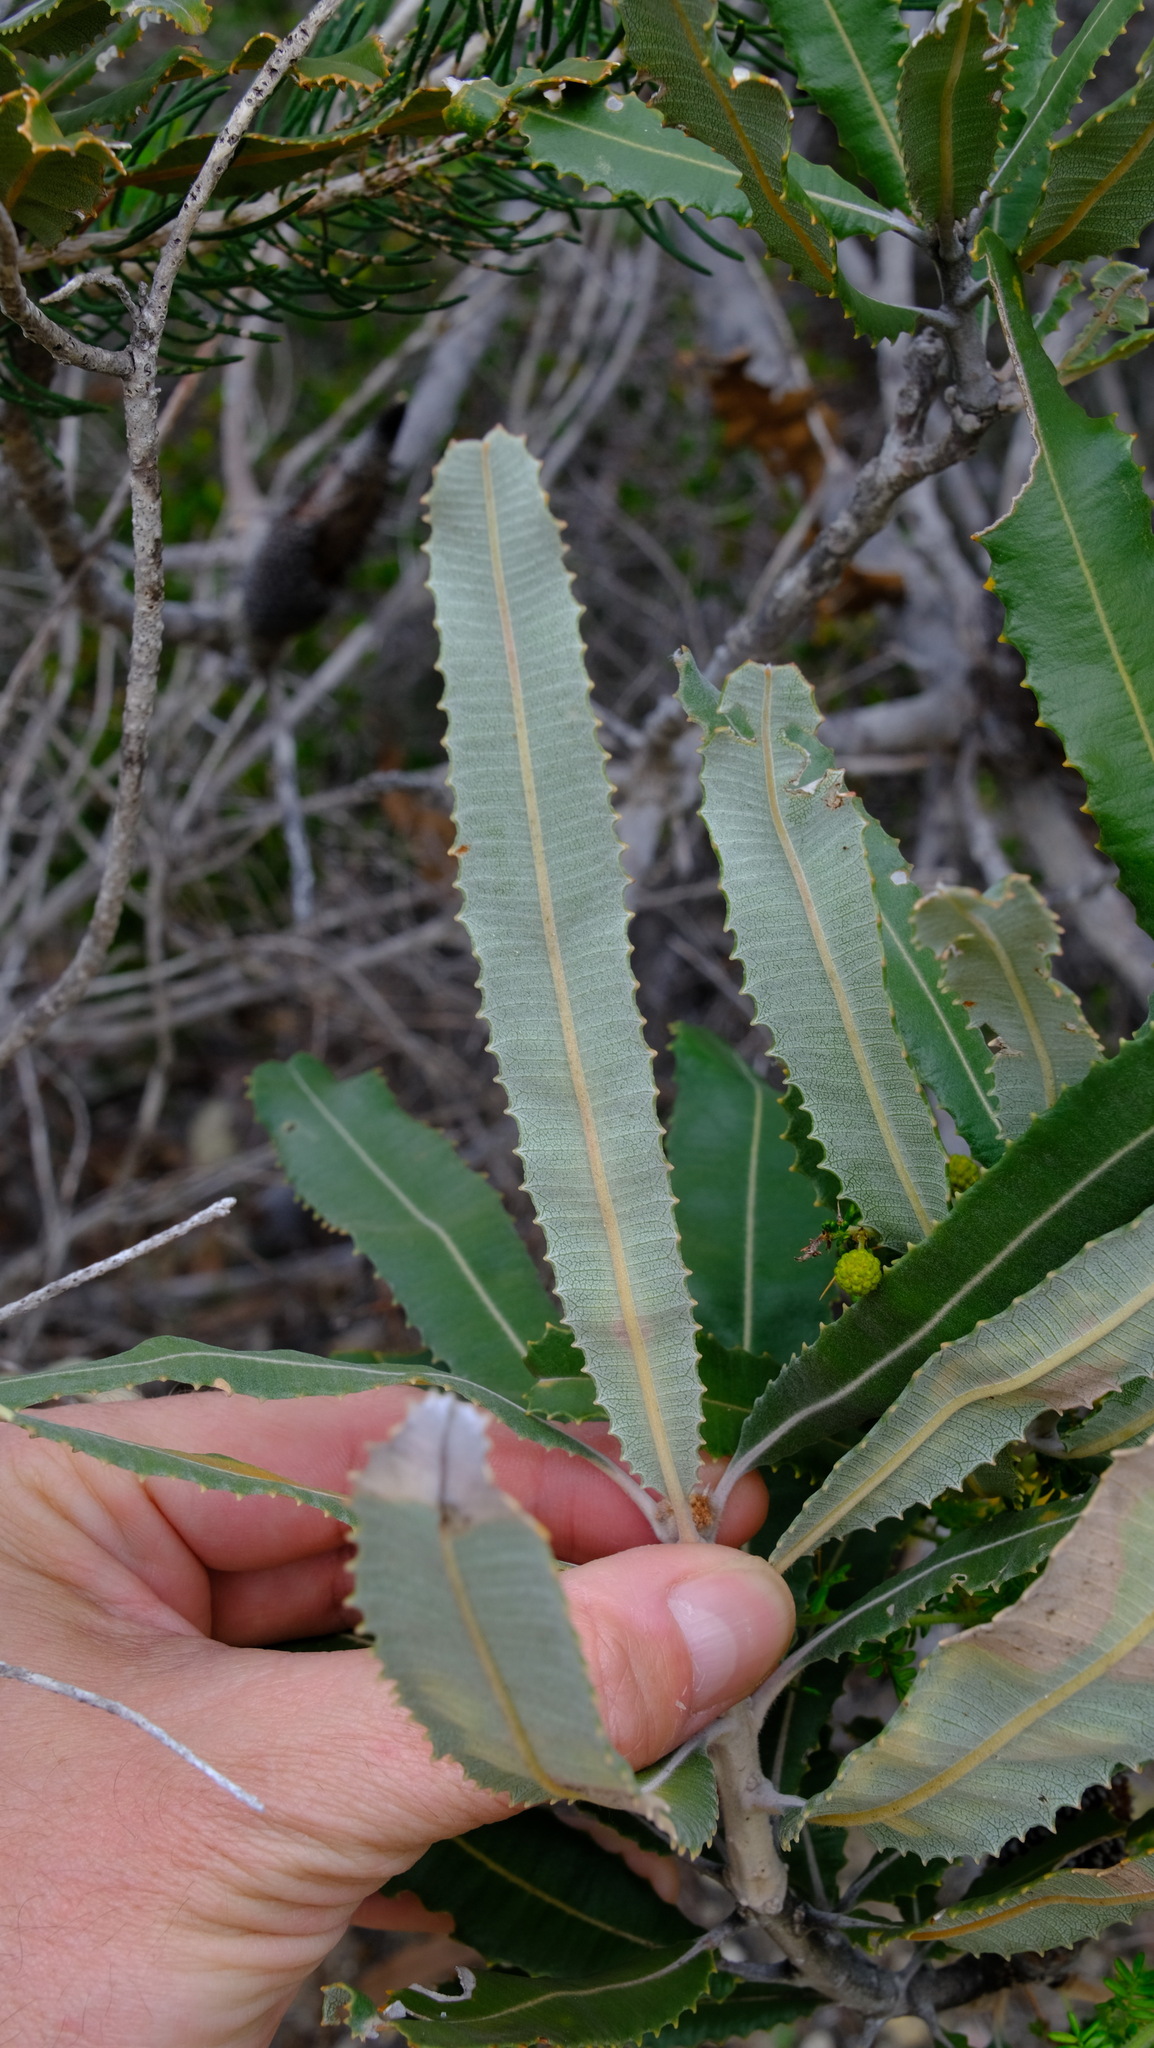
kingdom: Plantae
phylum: Tracheophyta
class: Magnoliopsida
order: Proteales
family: Proteaceae
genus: Banksia
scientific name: Banksia menziesii
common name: Menzie's banksia
